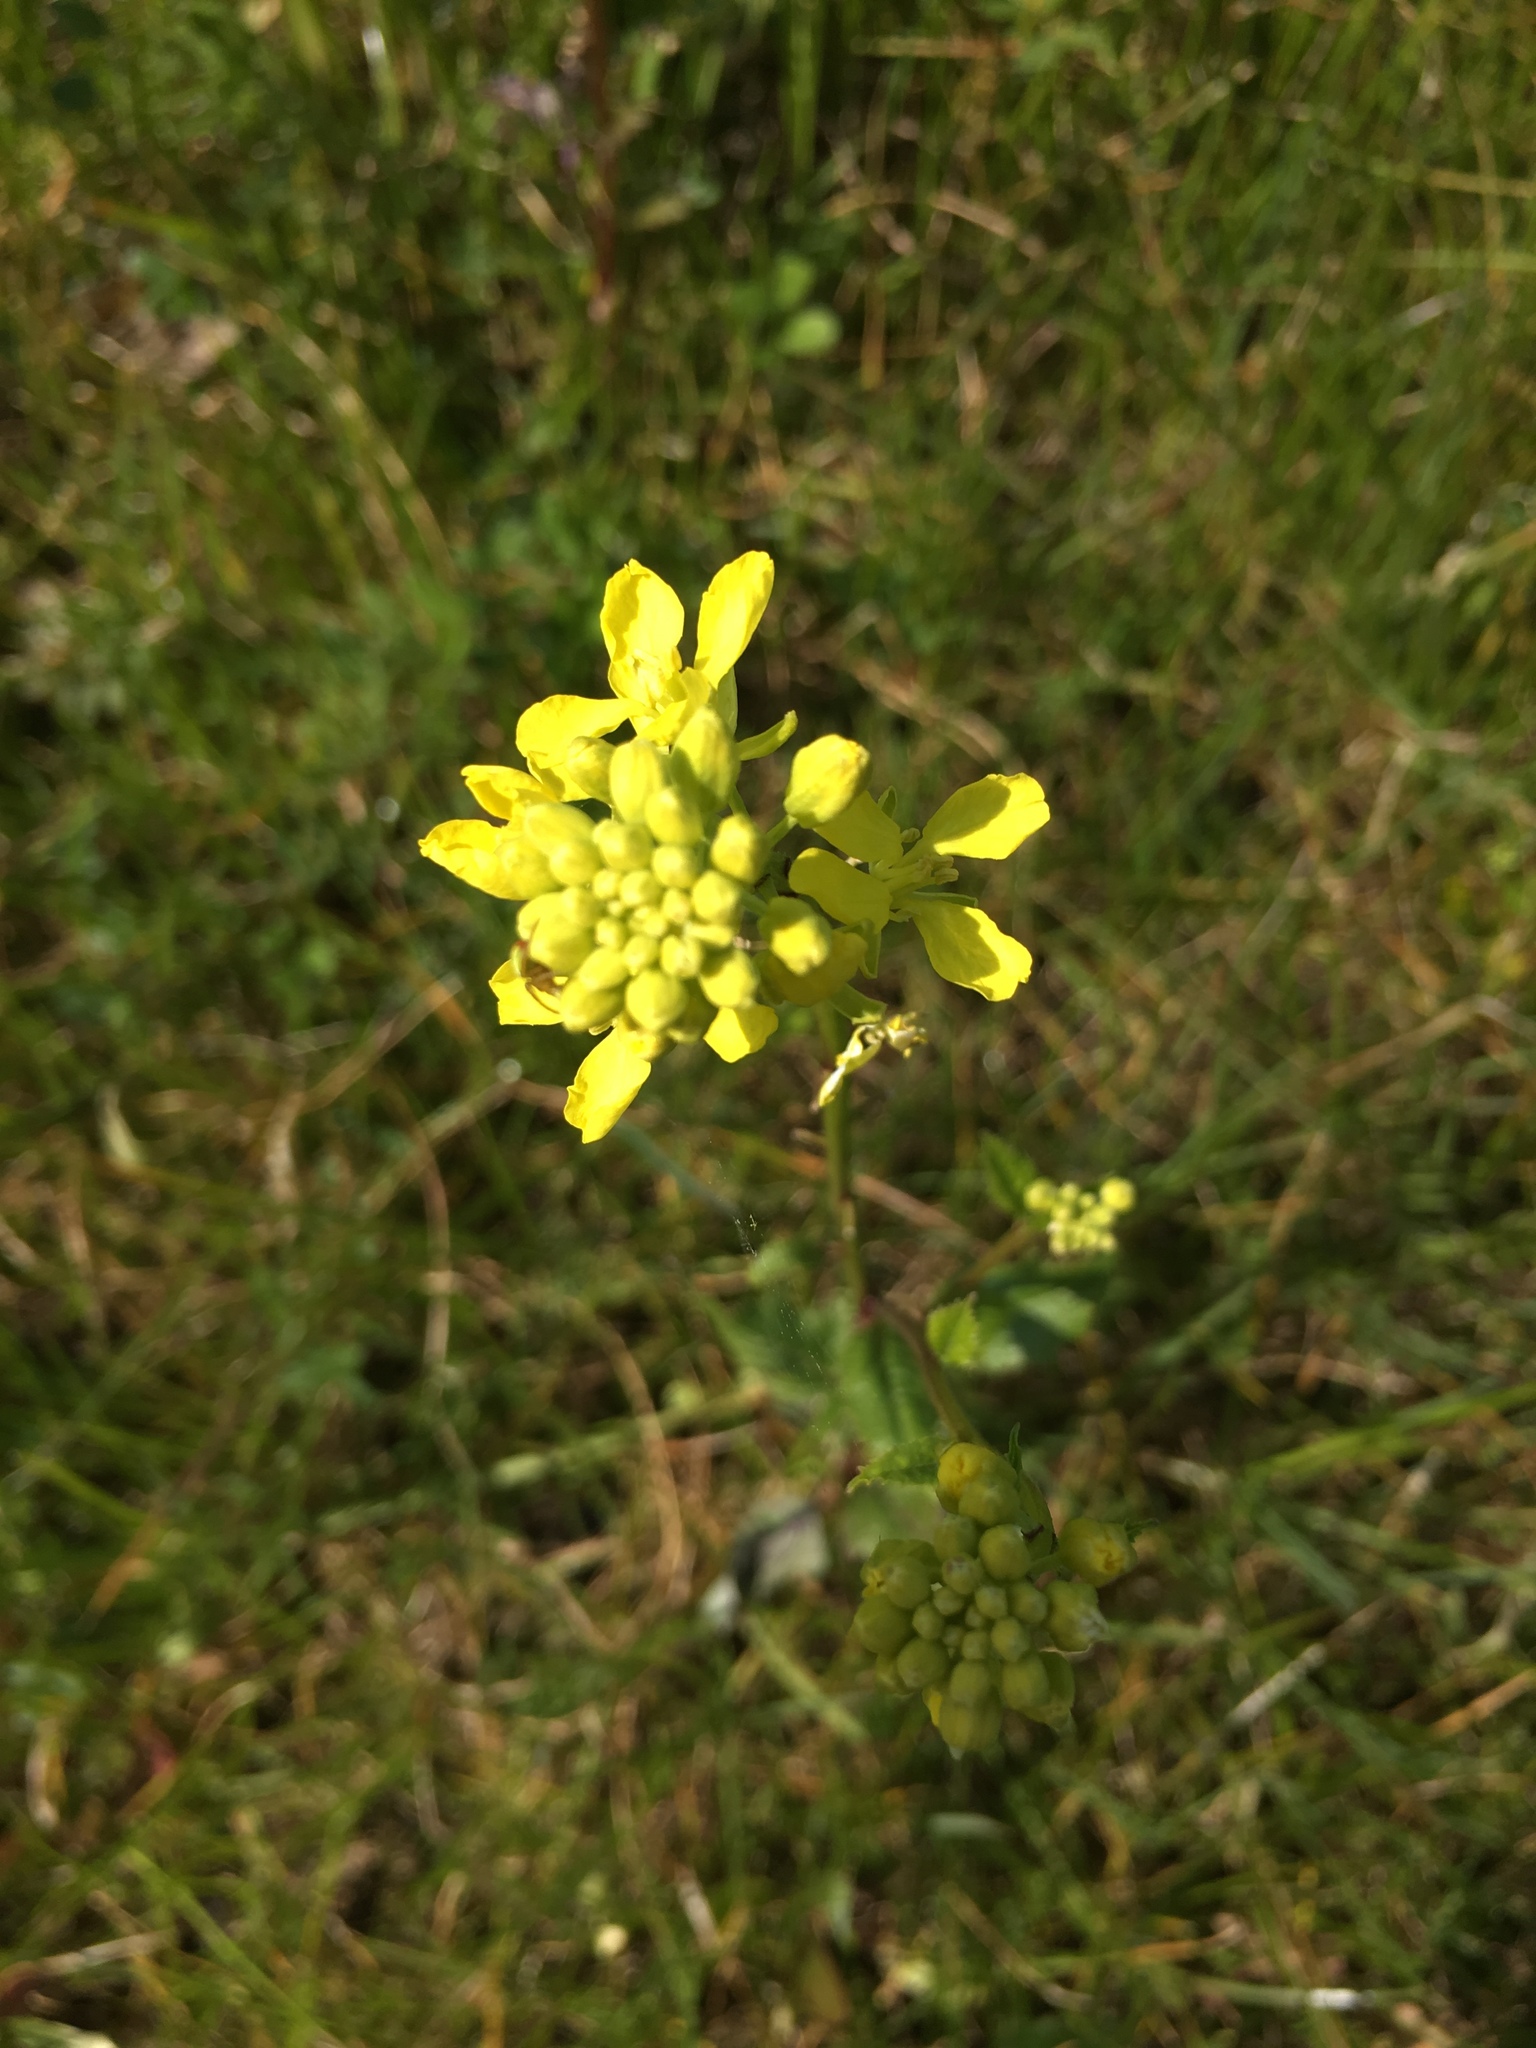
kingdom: Plantae
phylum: Tracheophyta
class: Magnoliopsida
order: Brassicales
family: Brassicaceae
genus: Hirschfeldia
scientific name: Hirschfeldia incana
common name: Hoary mustard
